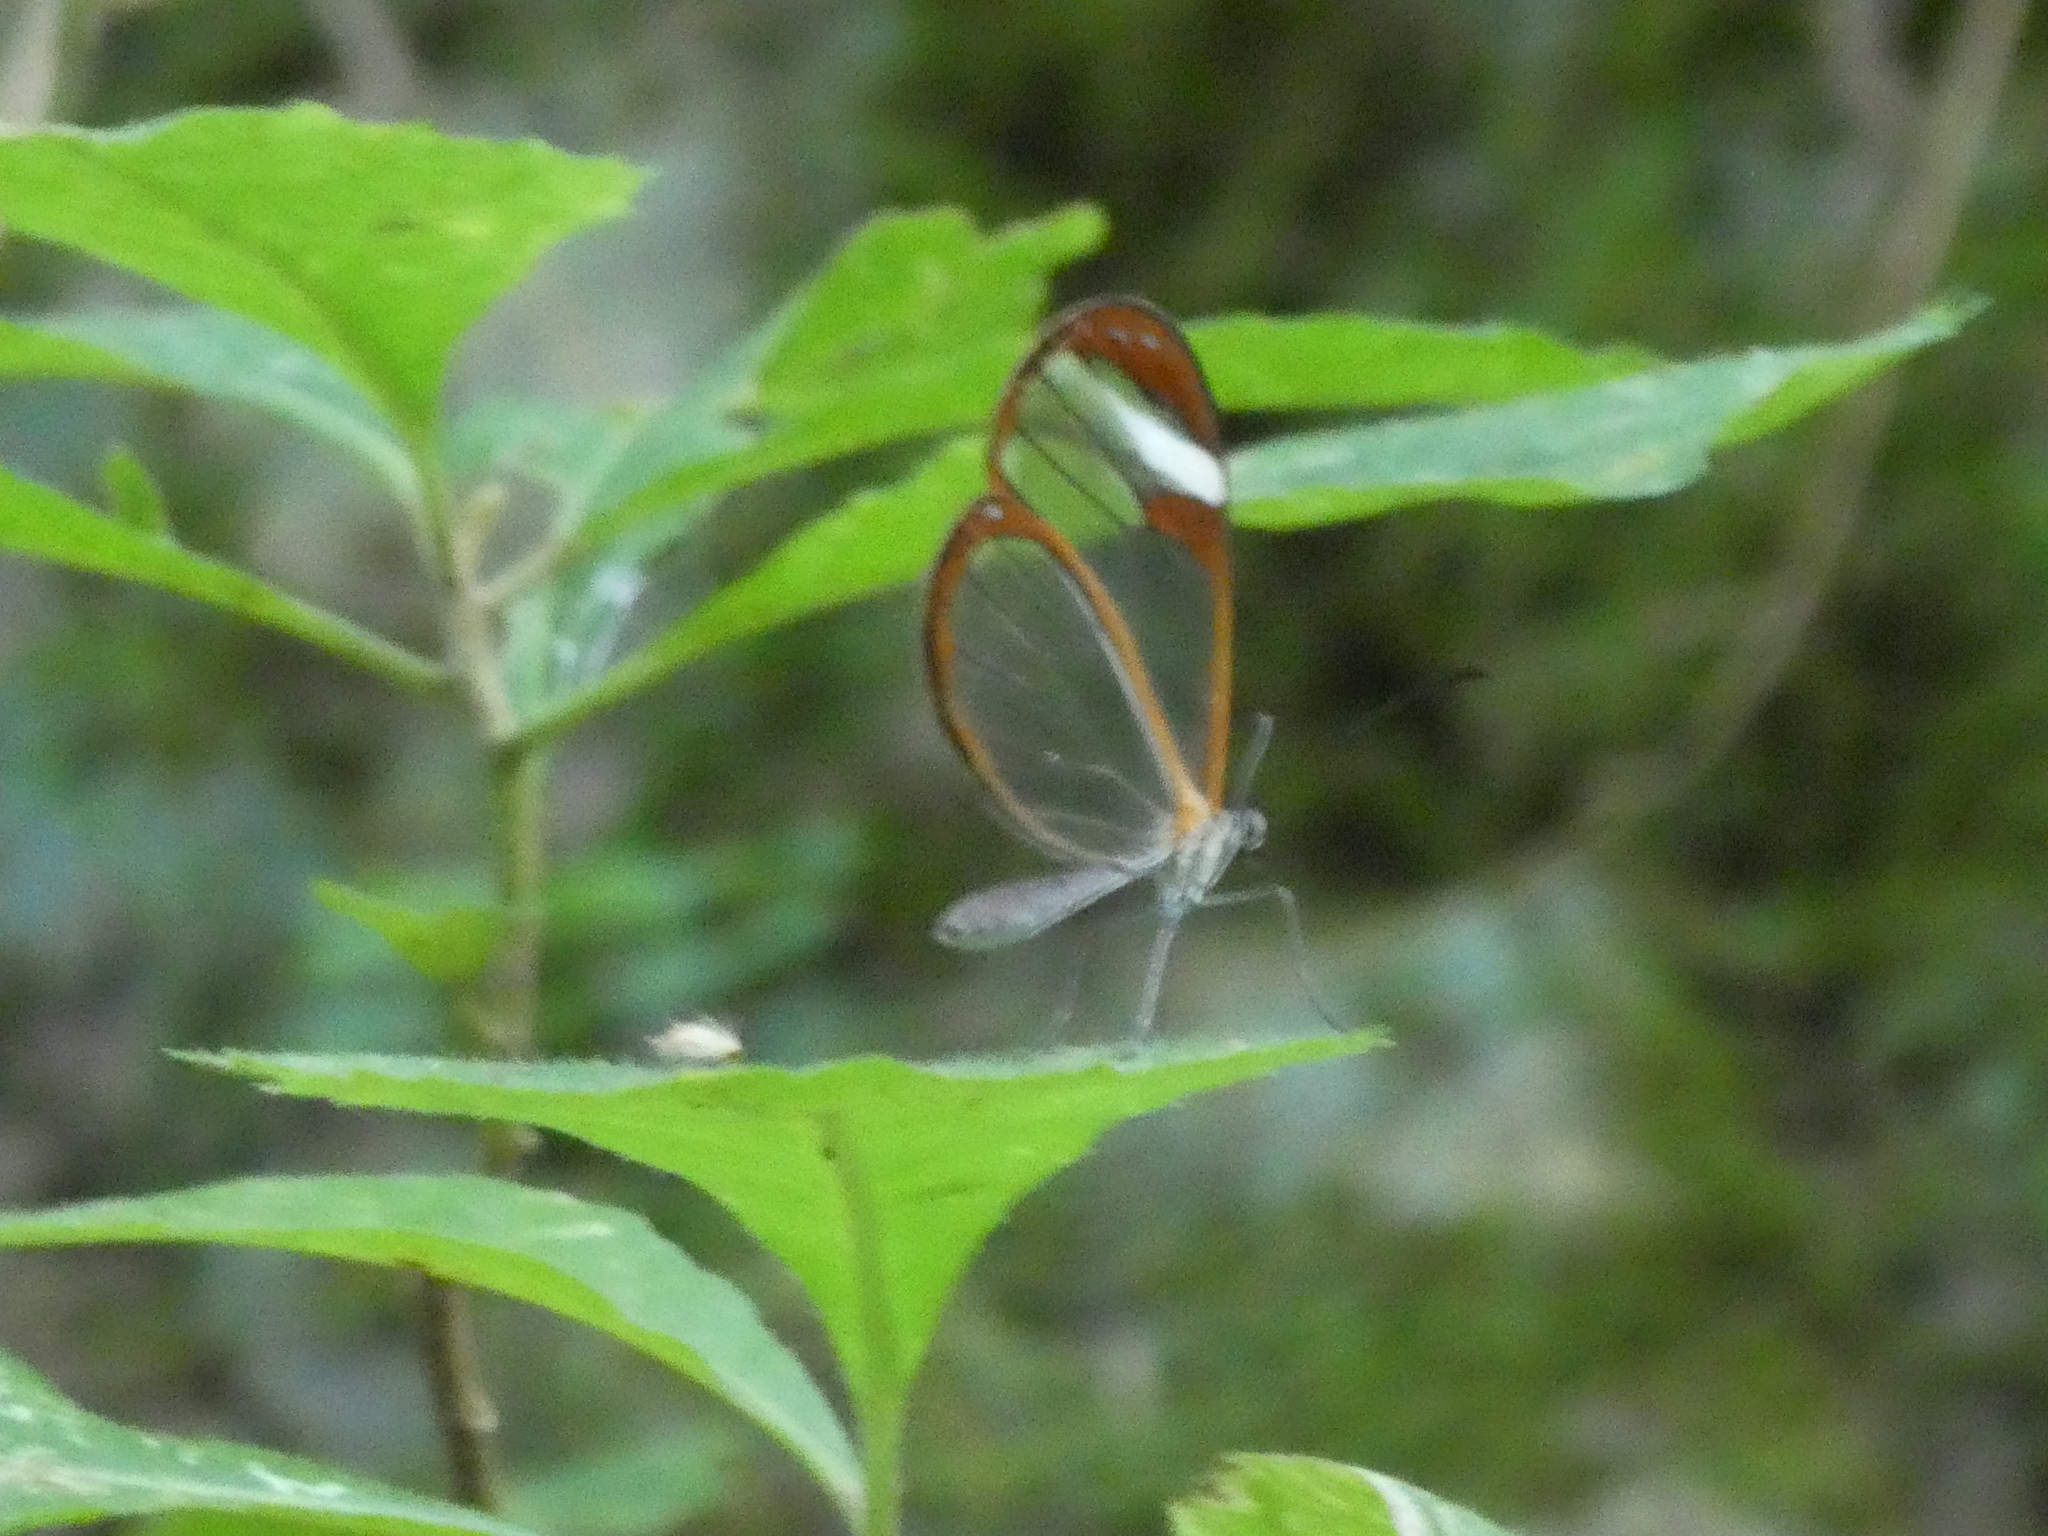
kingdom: Animalia
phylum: Arthropoda
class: Insecta
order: Lepidoptera
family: Nymphalidae
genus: Pteronymia
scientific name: Pteronymia cotytto
